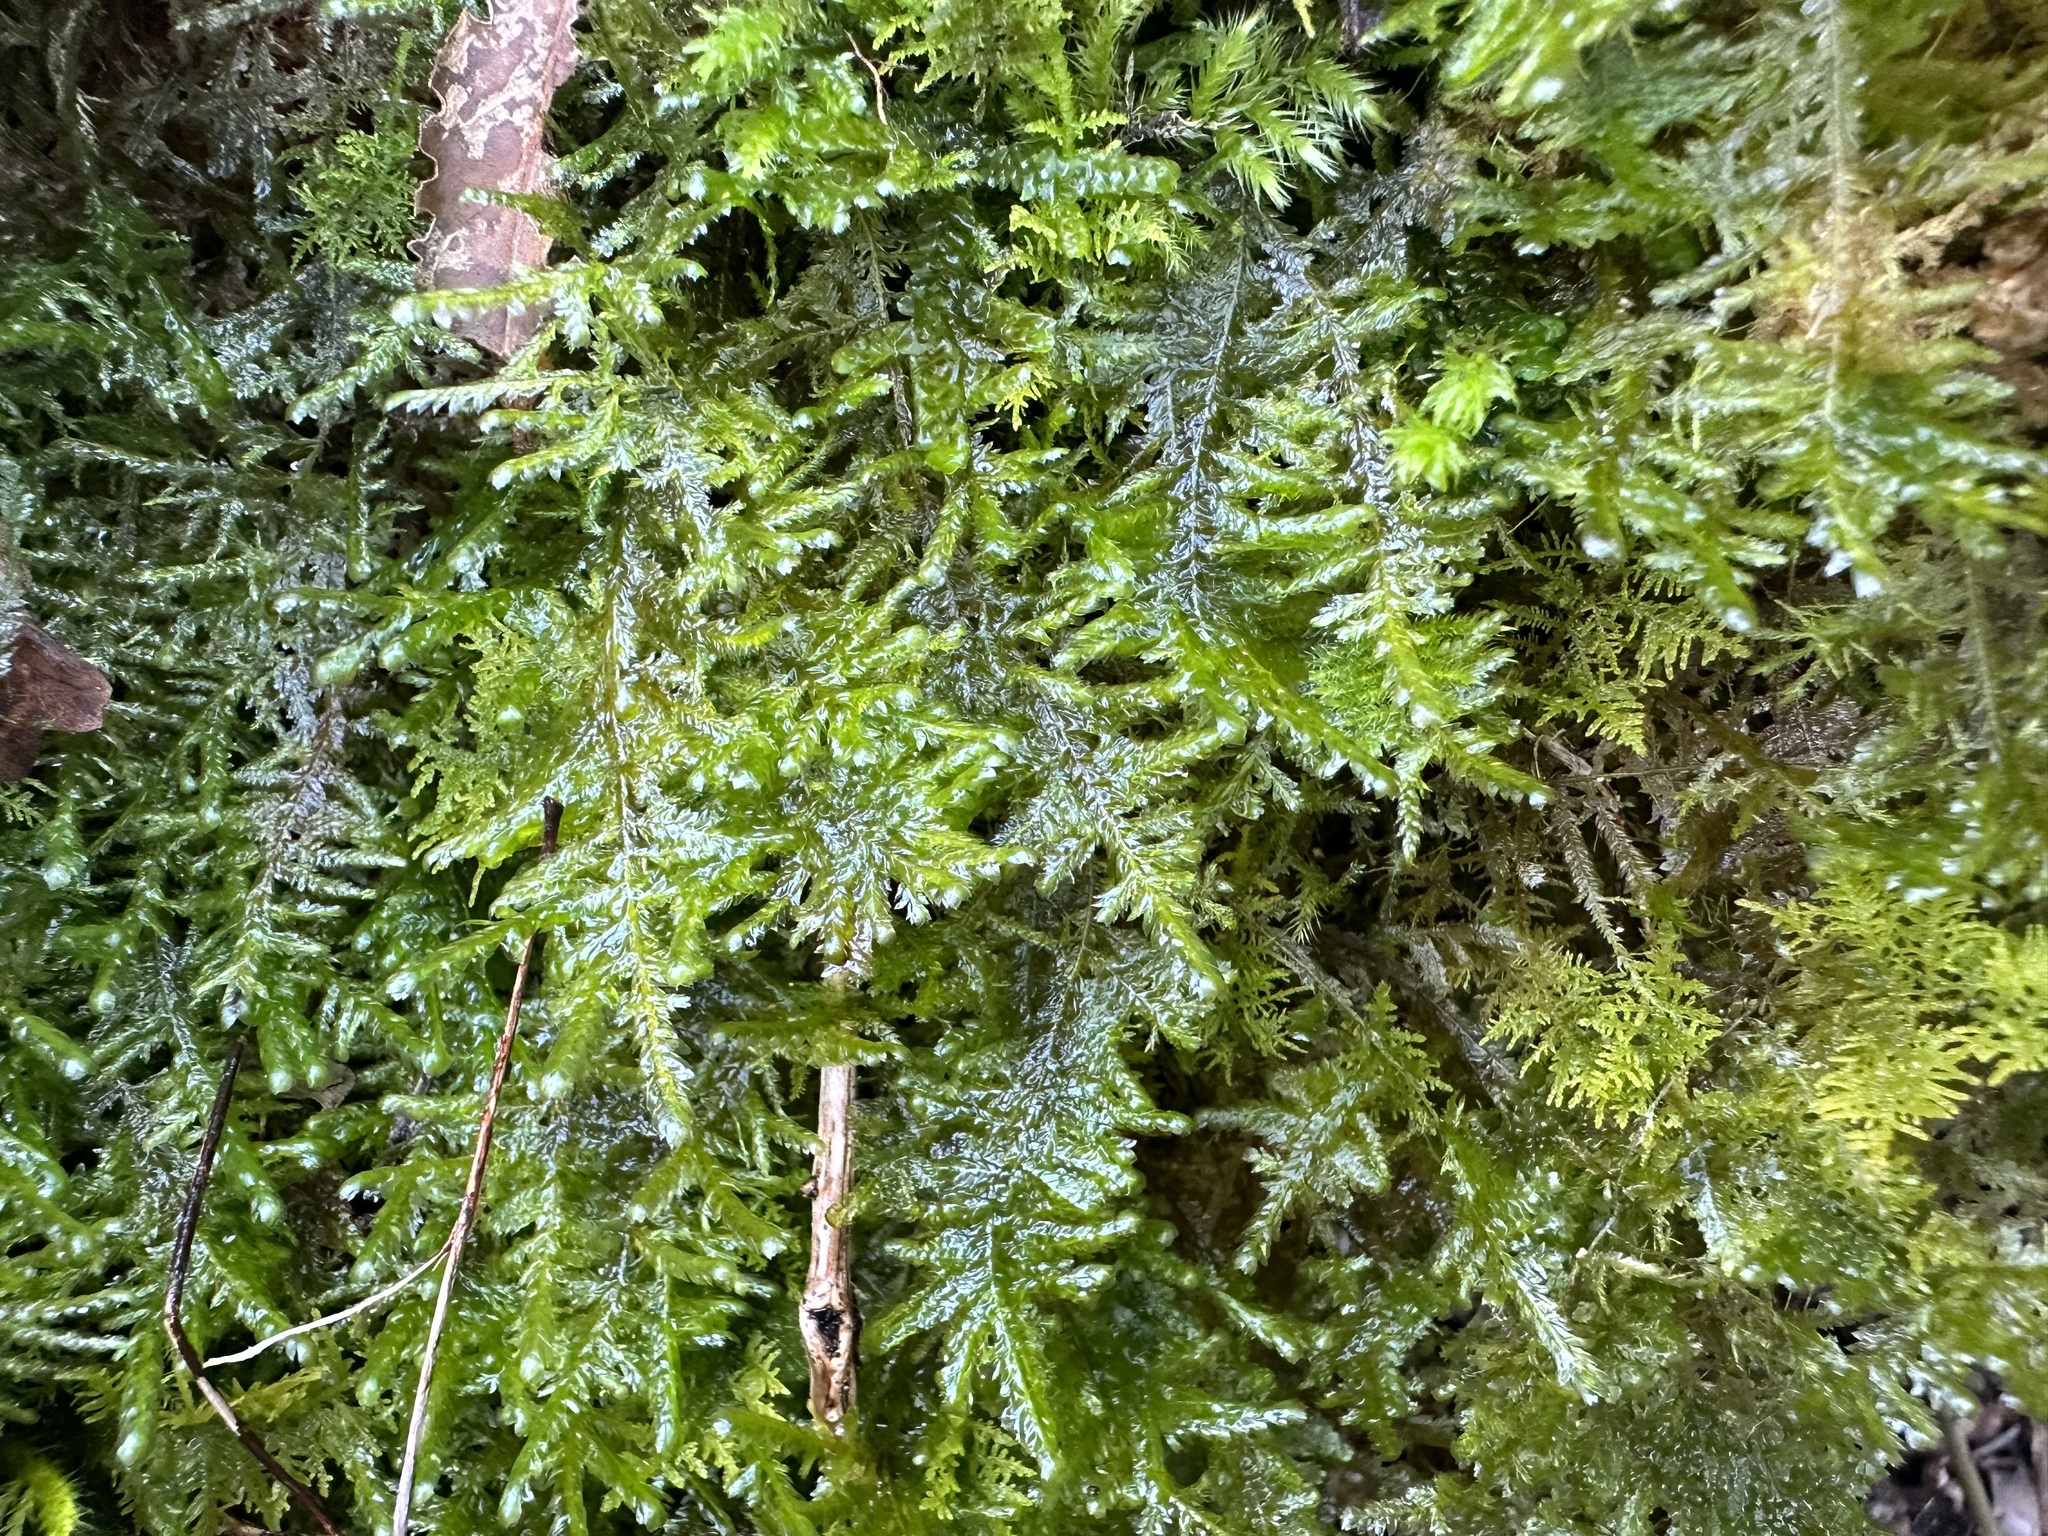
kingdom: Plantae
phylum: Bryophyta
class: Bryopsida
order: Hypnales
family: Neckeraceae
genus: Alleniella
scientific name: Alleniella complanata
